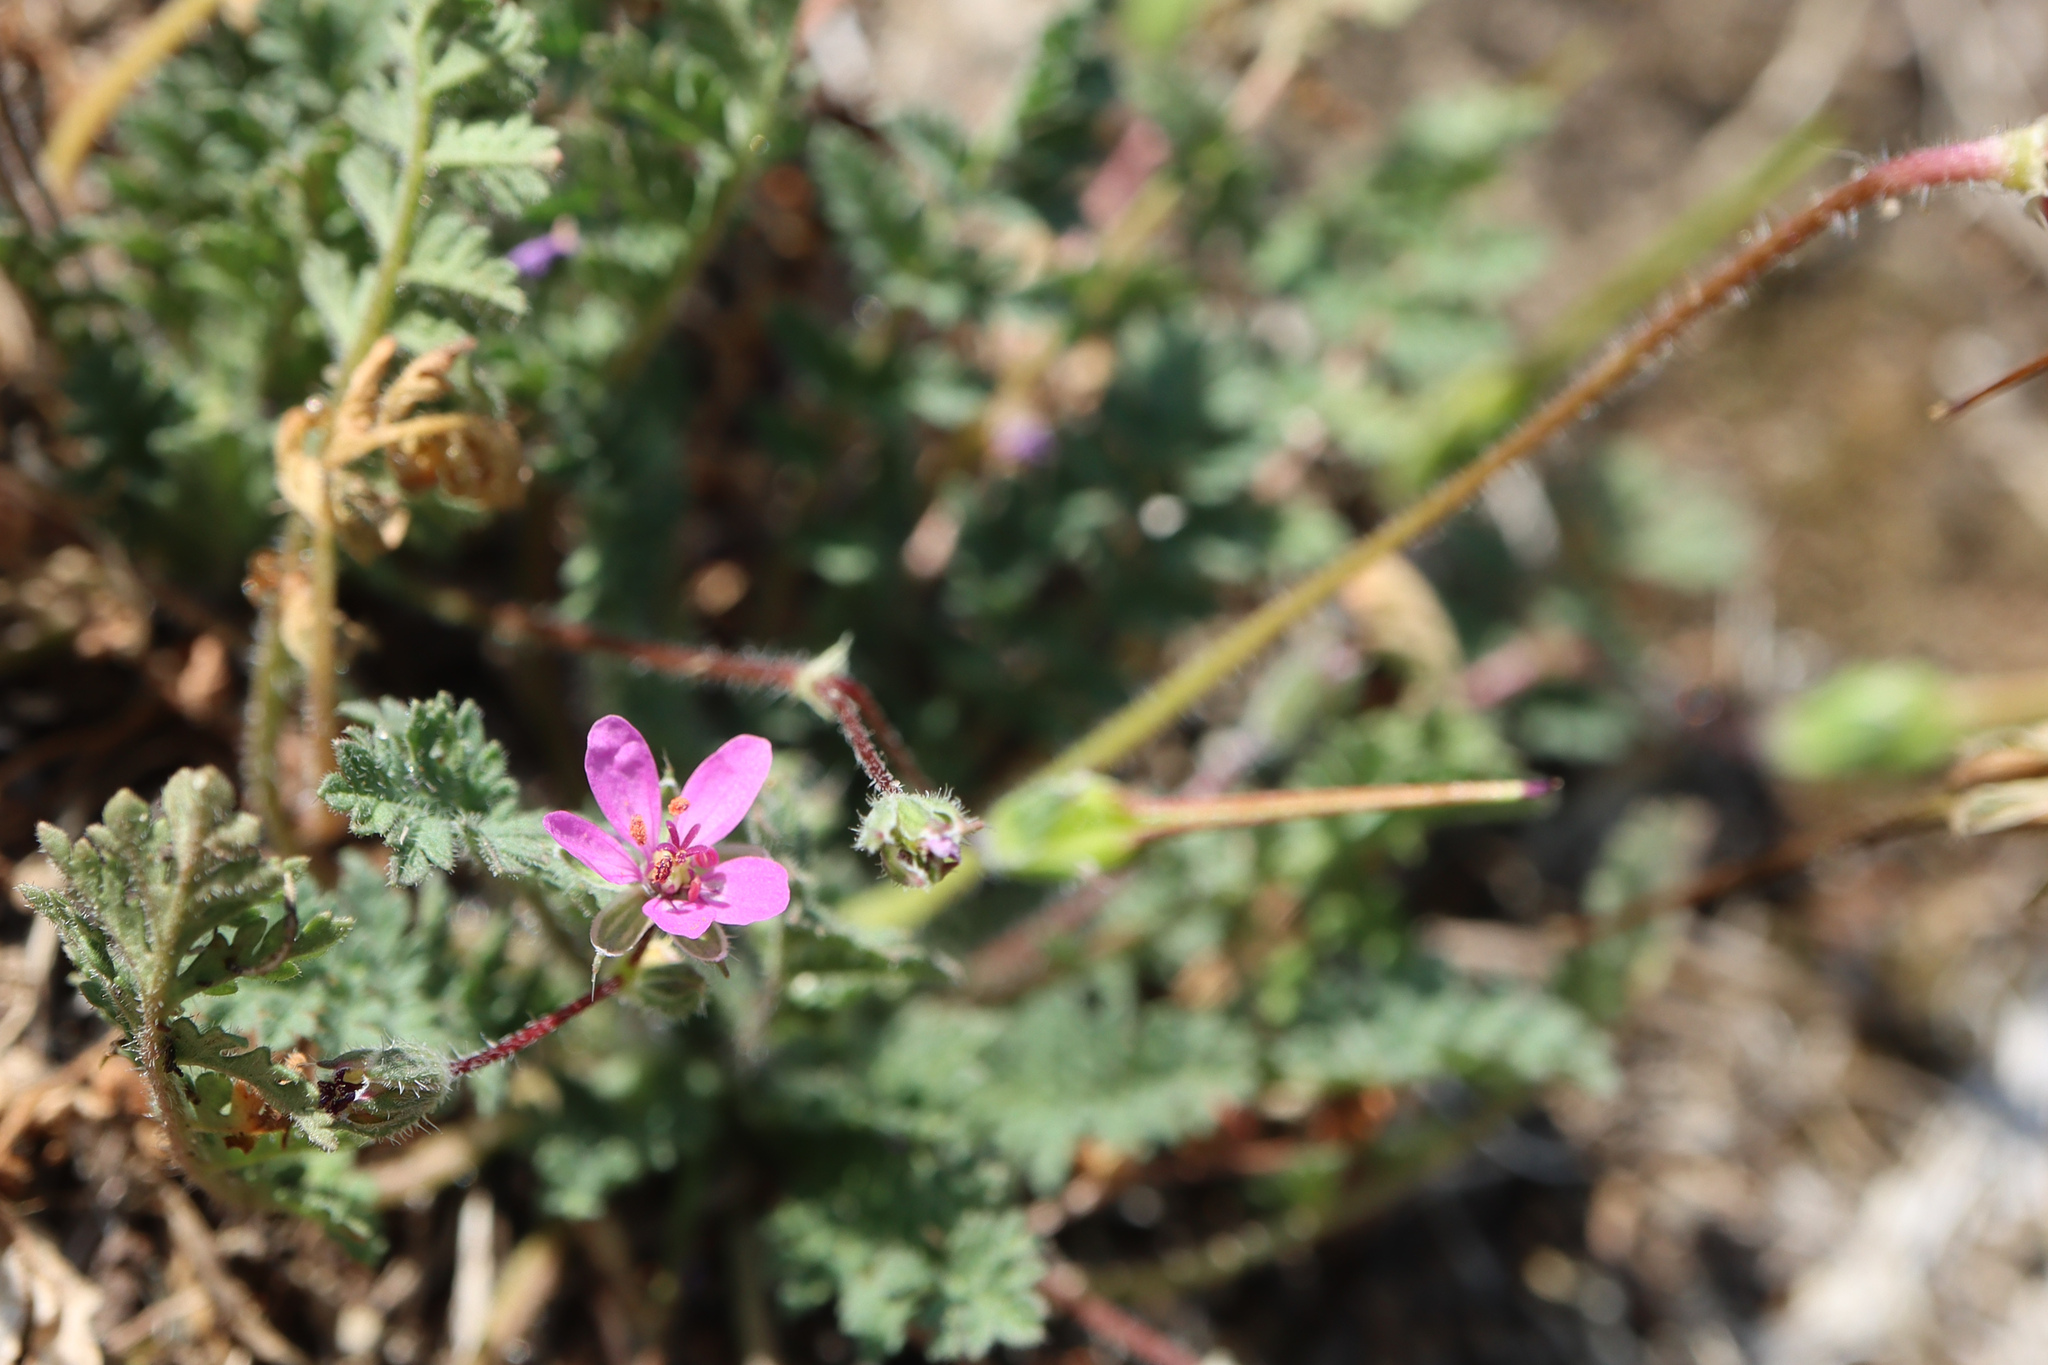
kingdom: Plantae
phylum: Tracheophyta
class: Magnoliopsida
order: Geraniales
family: Geraniaceae
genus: Erodium
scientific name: Erodium cicutarium
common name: Common stork's-bill
